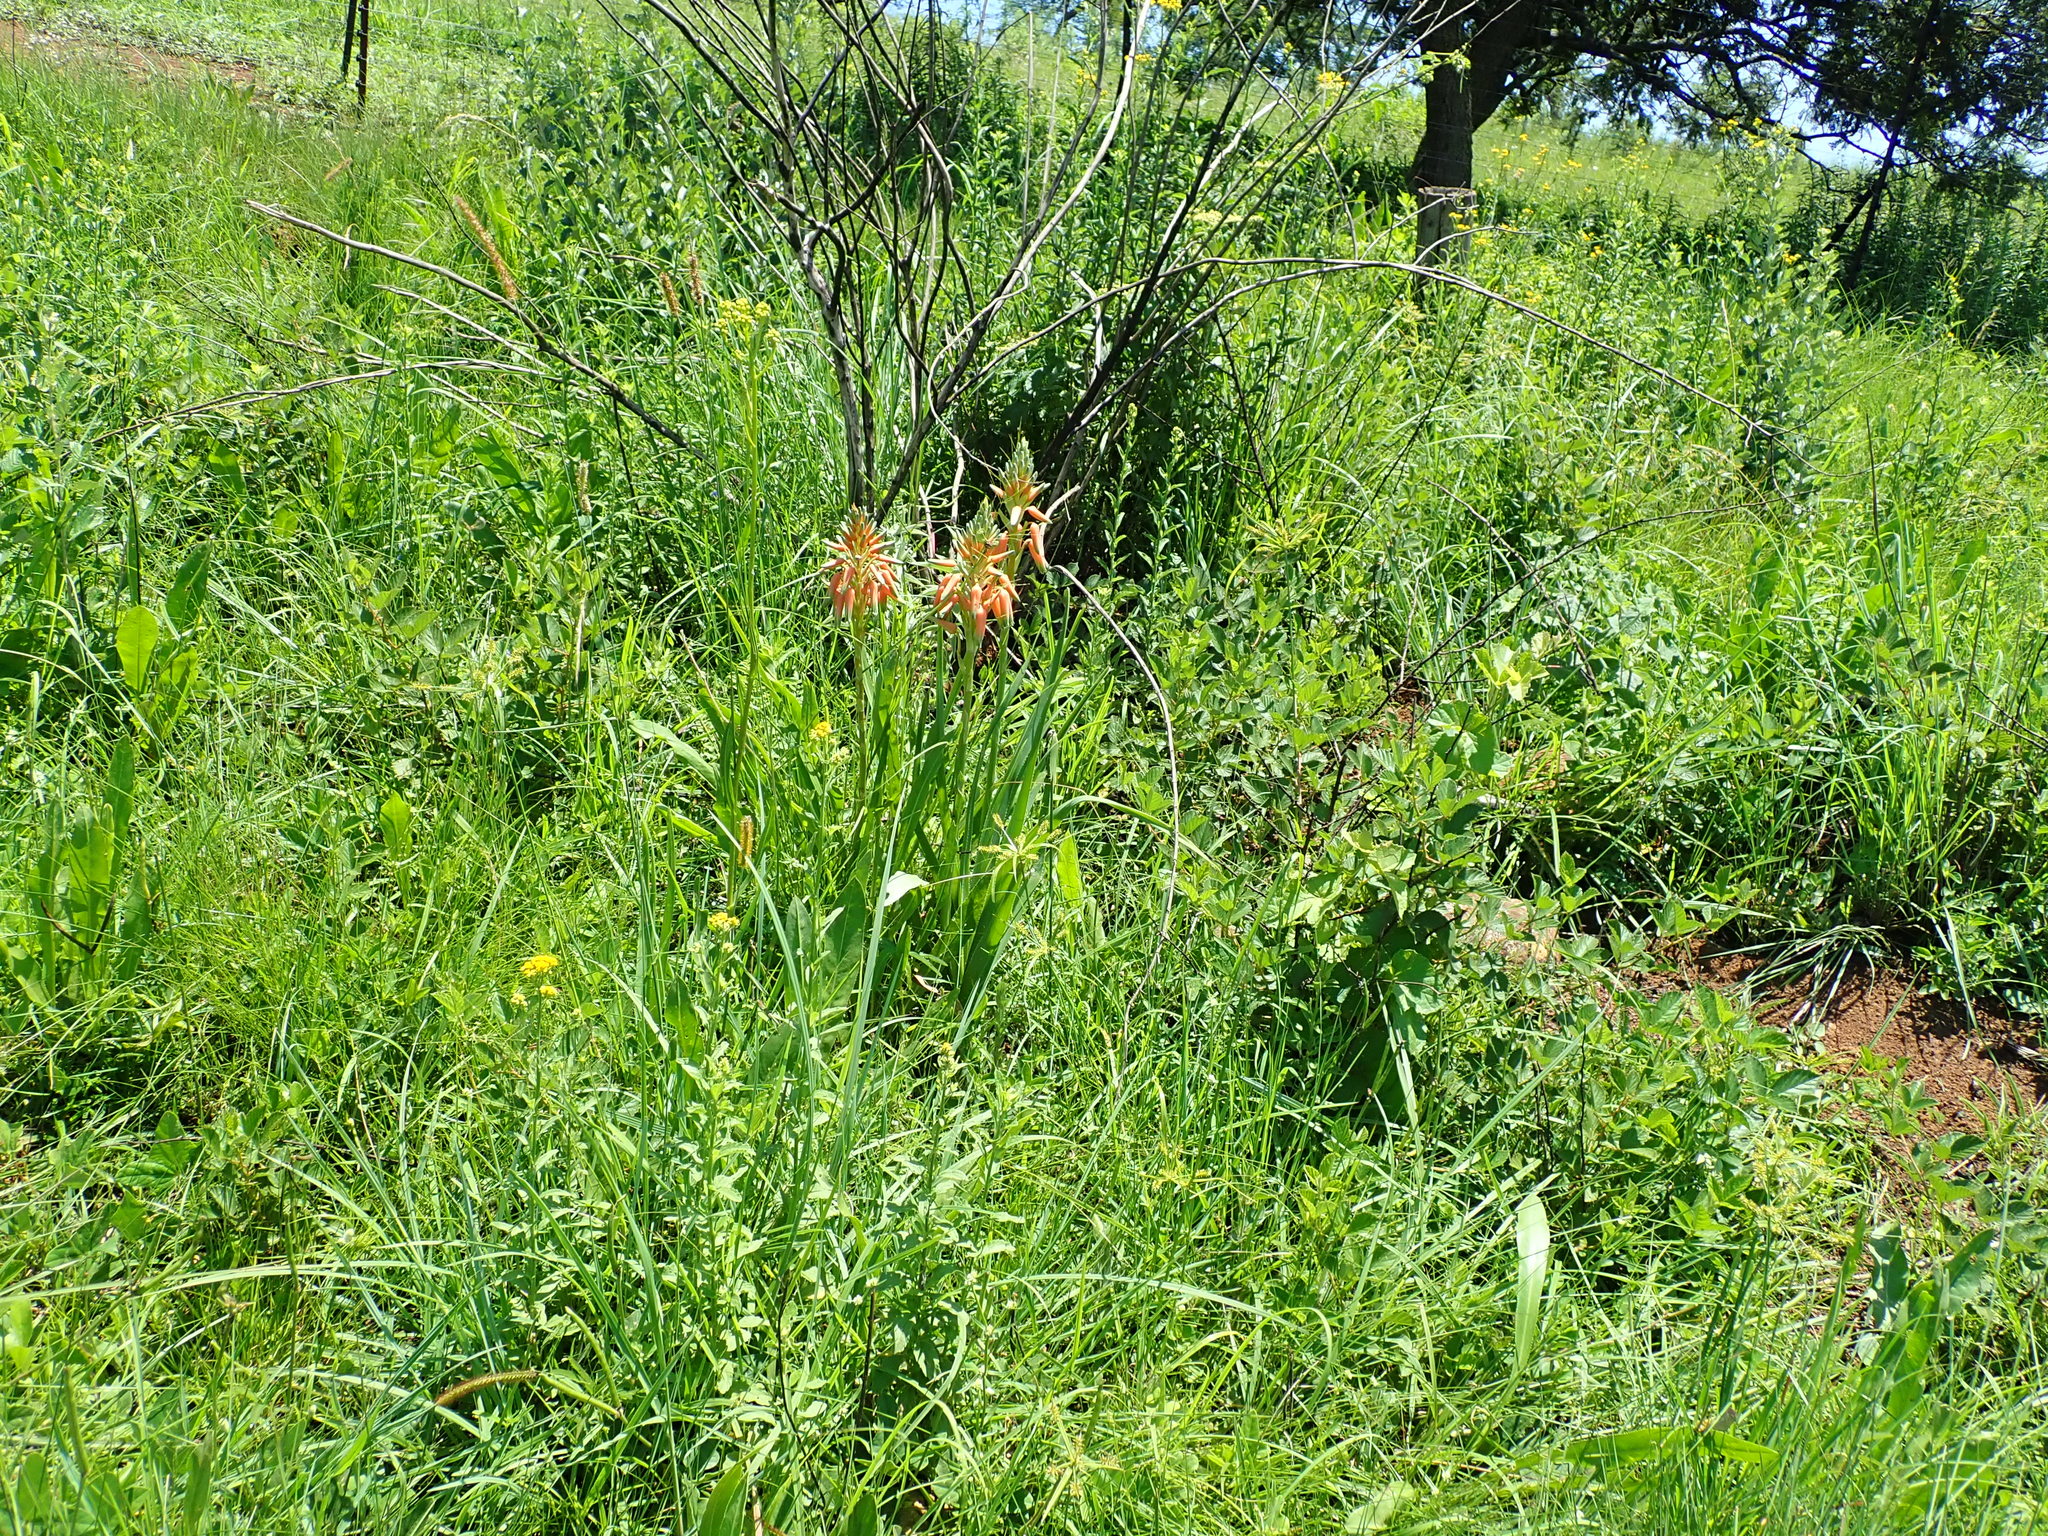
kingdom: Plantae
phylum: Tracheophyta
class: Liliopsida
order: Asparagales
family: Asphodelaceae
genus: Aloe
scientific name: Aloe cooperi
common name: Cooper's aloe
